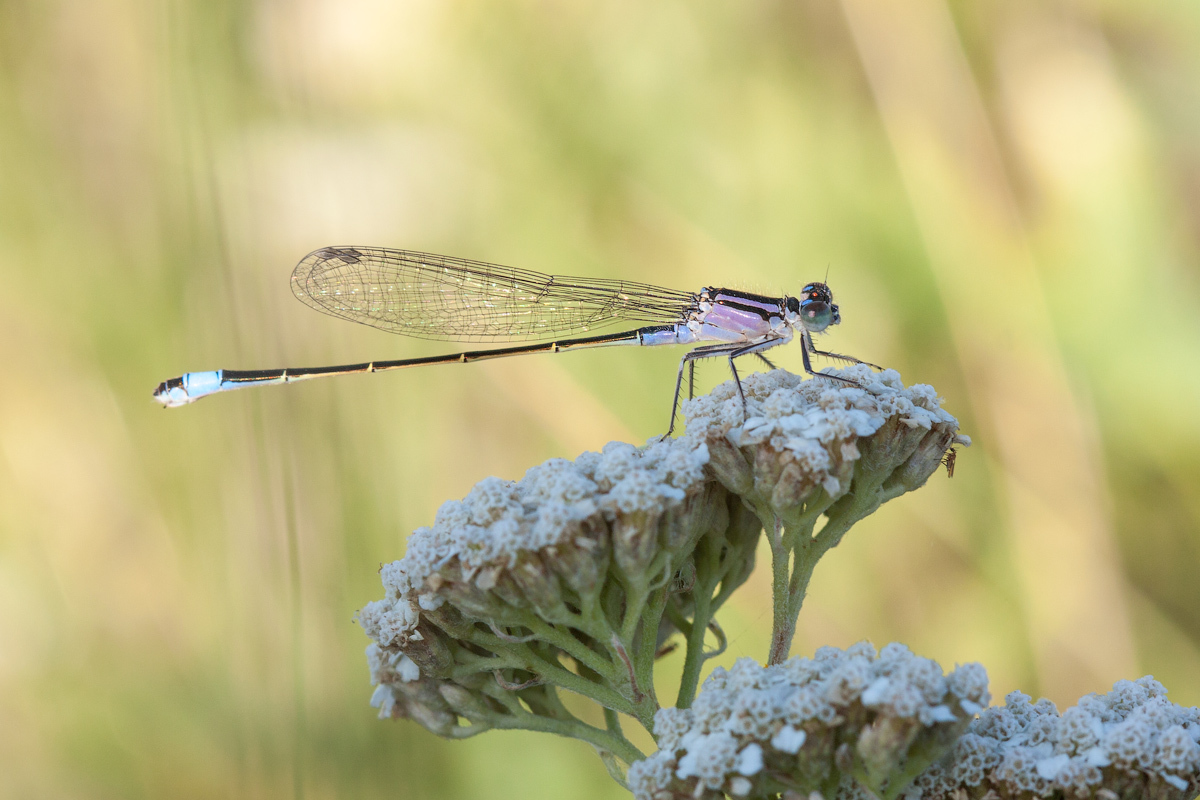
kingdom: Animalia
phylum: Arthropoda
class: Insecta
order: Odonata
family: Coenagrionidae
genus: Ischnura
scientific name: Ischnura elegans
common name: Blue-tailed damselfly
